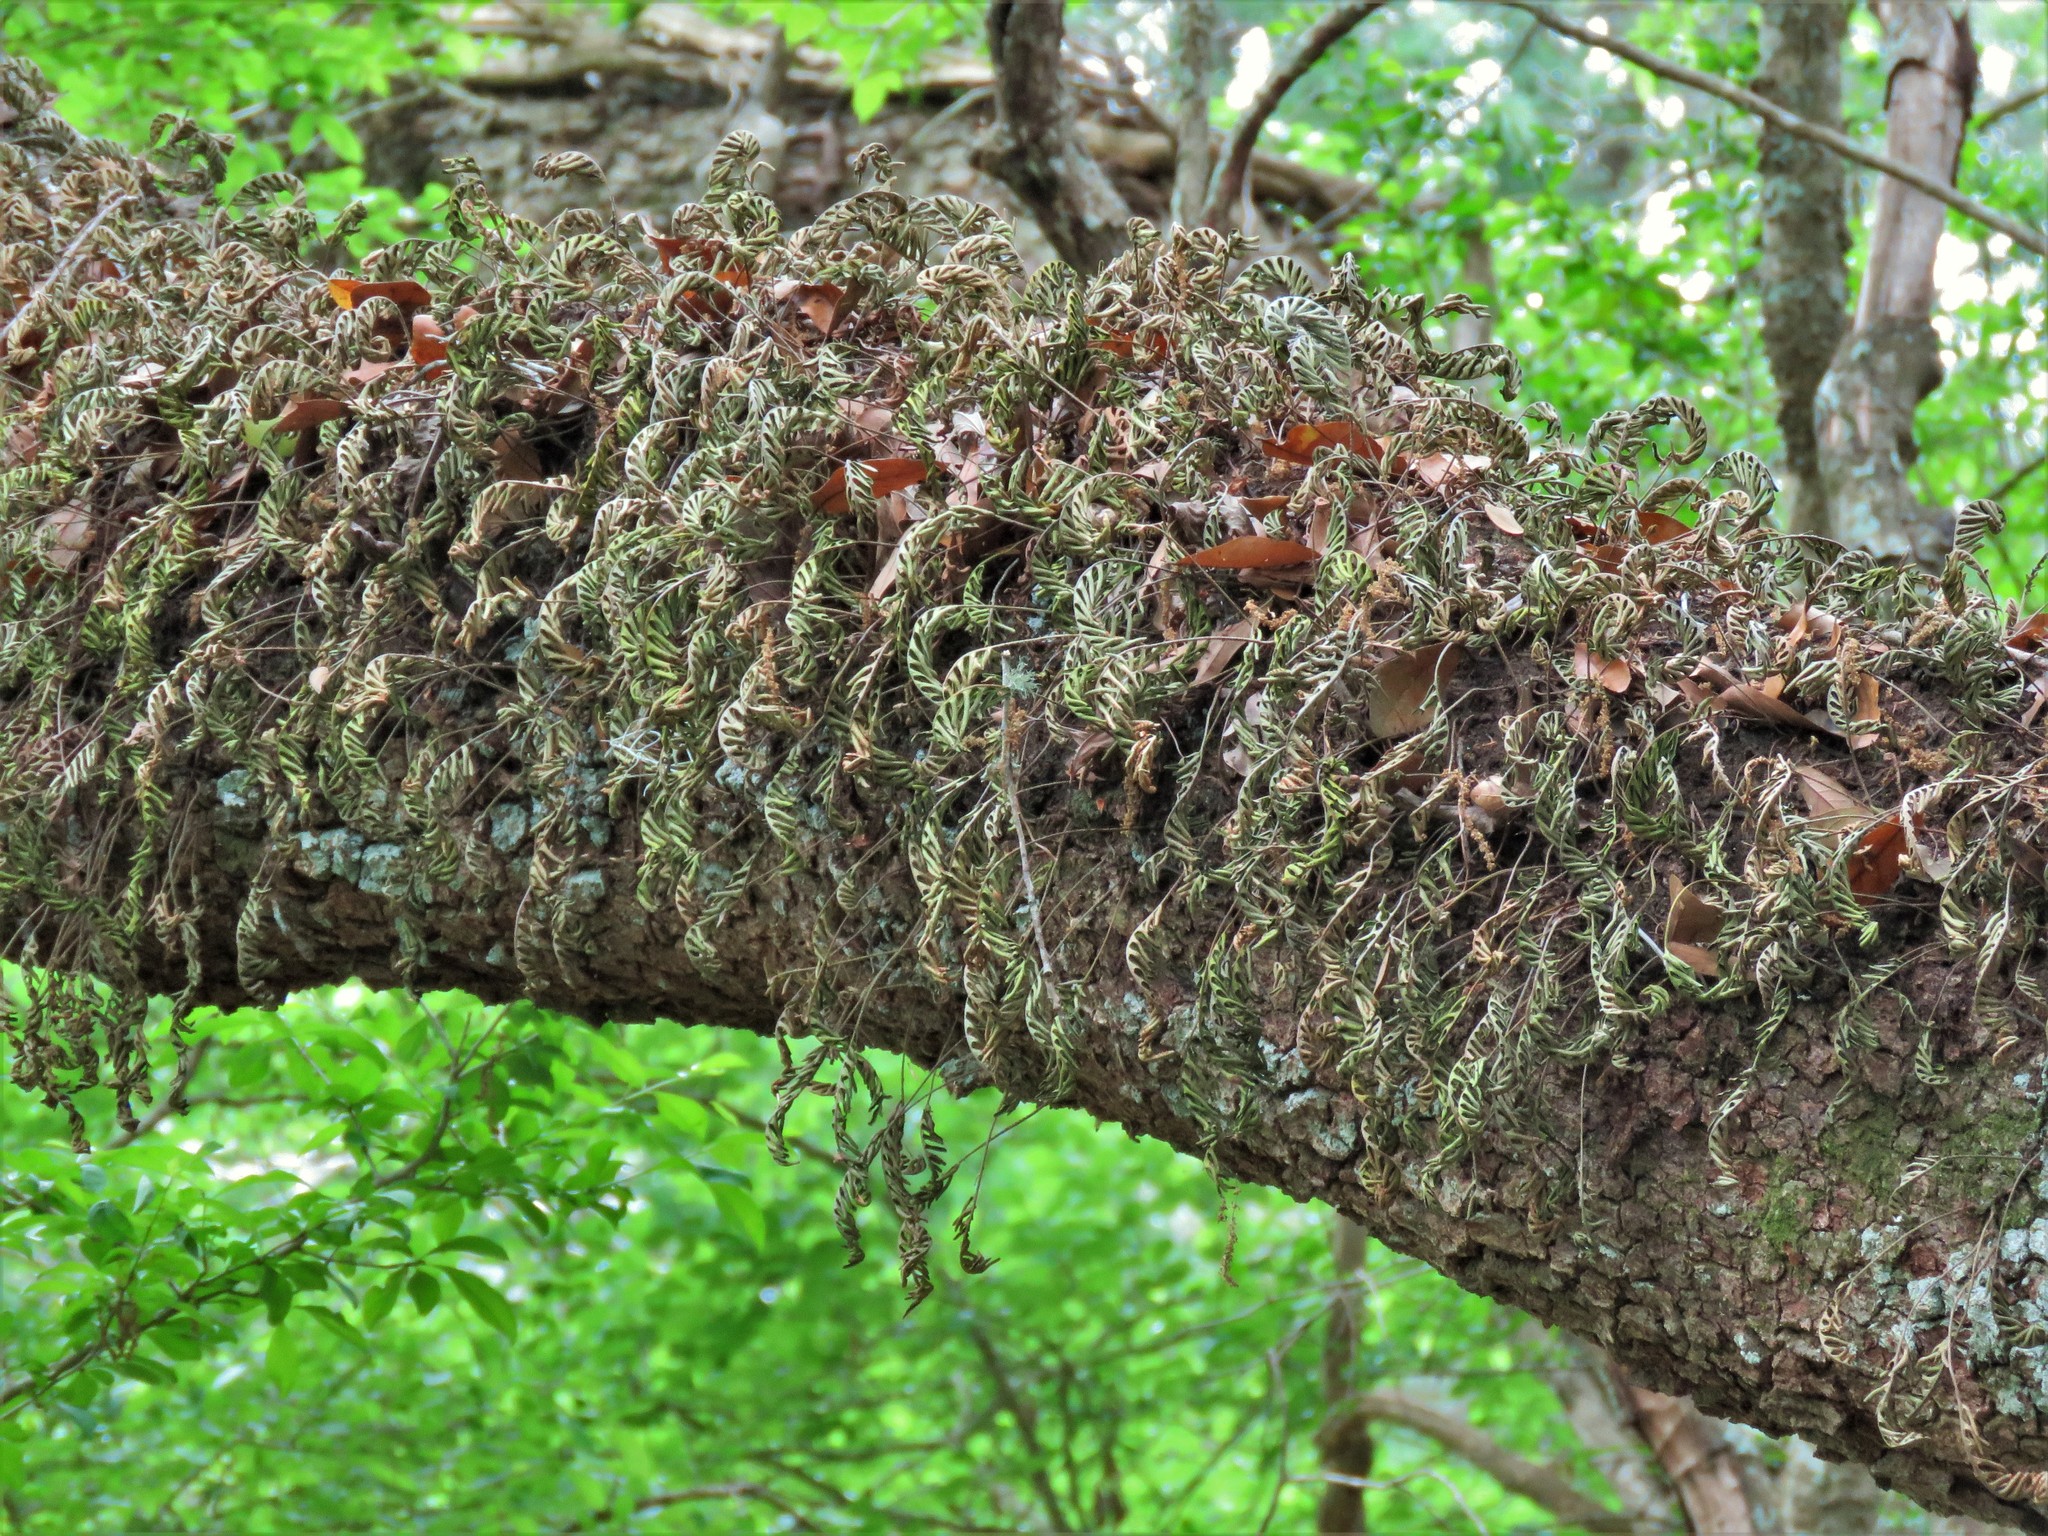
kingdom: Plantae
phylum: Tracheophyta
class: Polypodiopsida
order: Polypodiales
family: Polypodiaceae
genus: Pleopeltis
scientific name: Pleopeltis michauxiana
